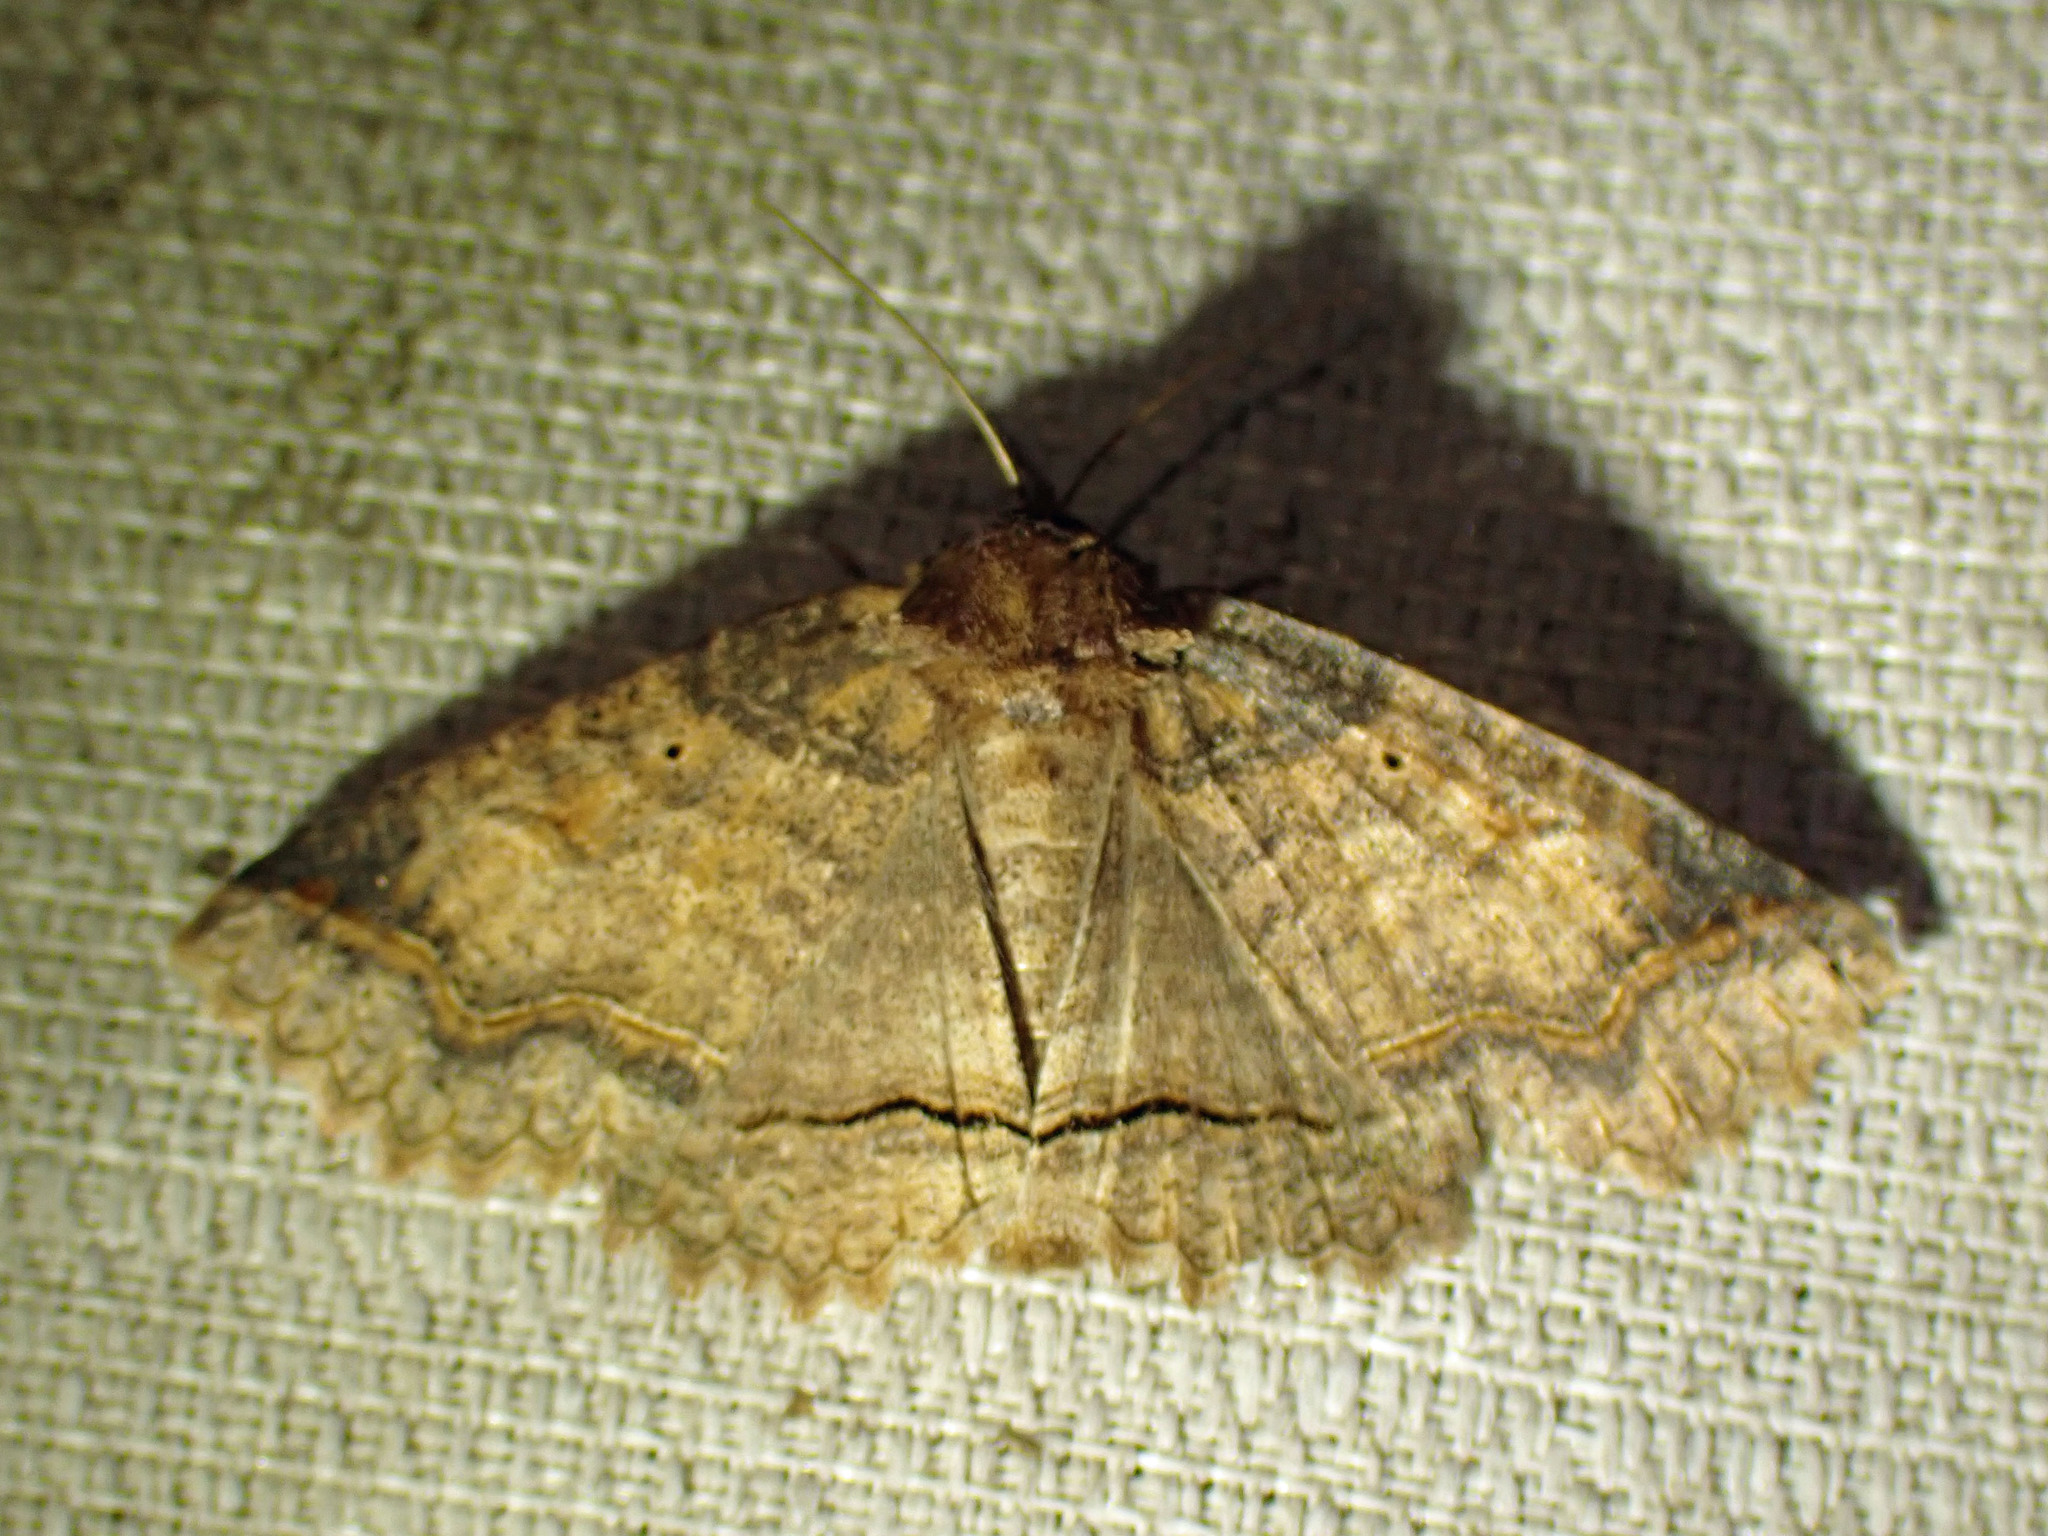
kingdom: Animalia
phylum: Arthropoda
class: Insecta
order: Lepidoptera
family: Erebidae
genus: Zale
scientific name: Zale unilineata
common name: One-lined zale moth
